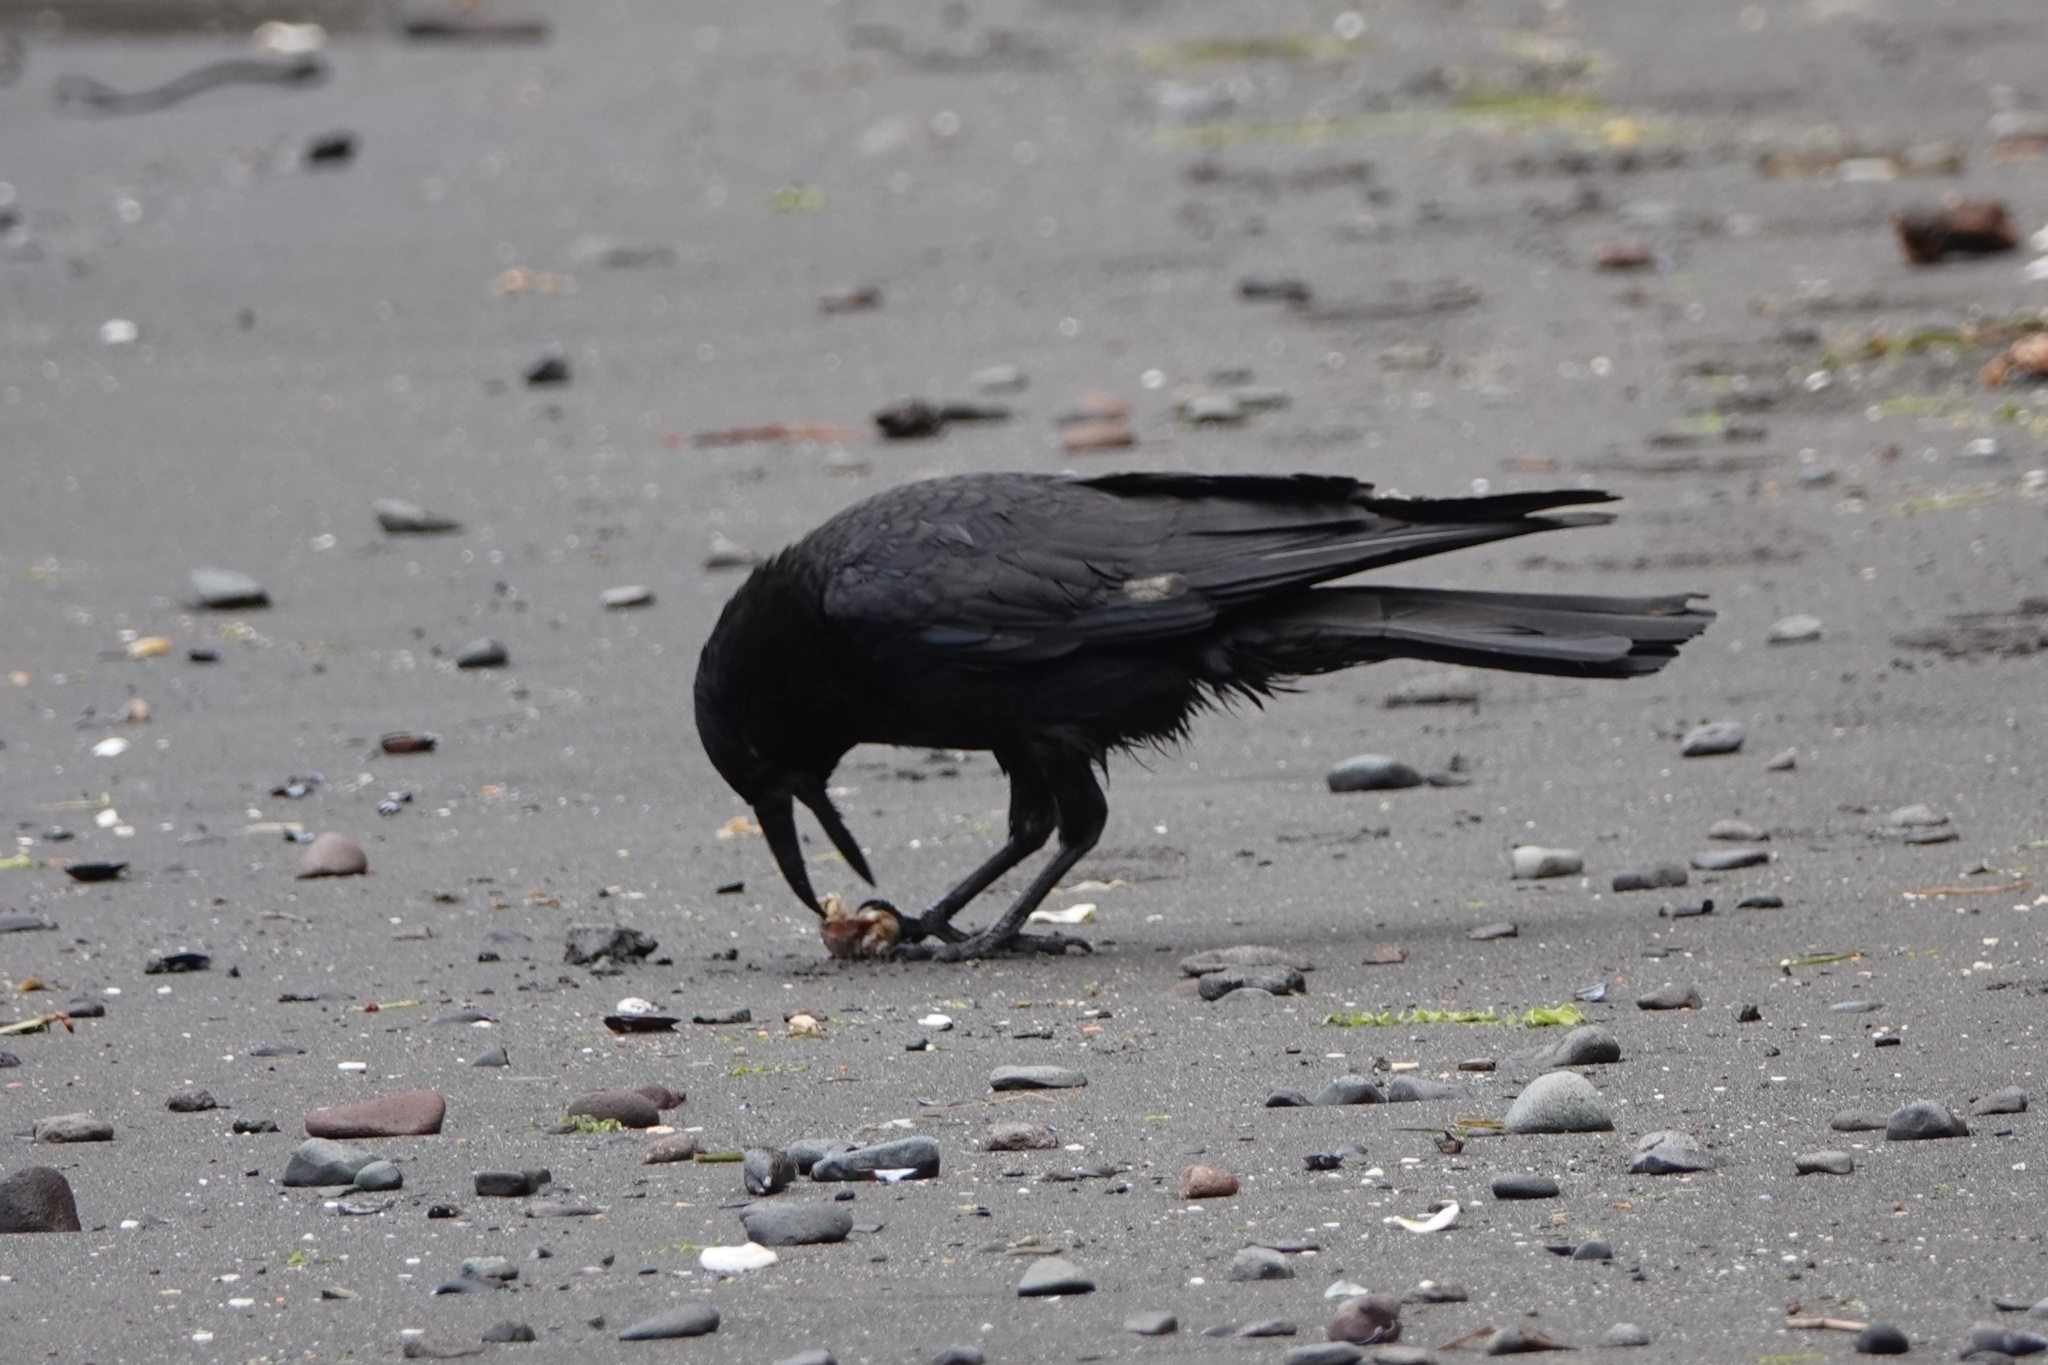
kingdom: Animalia
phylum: Chordata
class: Aves
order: Passeriformes
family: Corvidae
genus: Corvus
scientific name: Corvus corone
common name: Carrion crow
